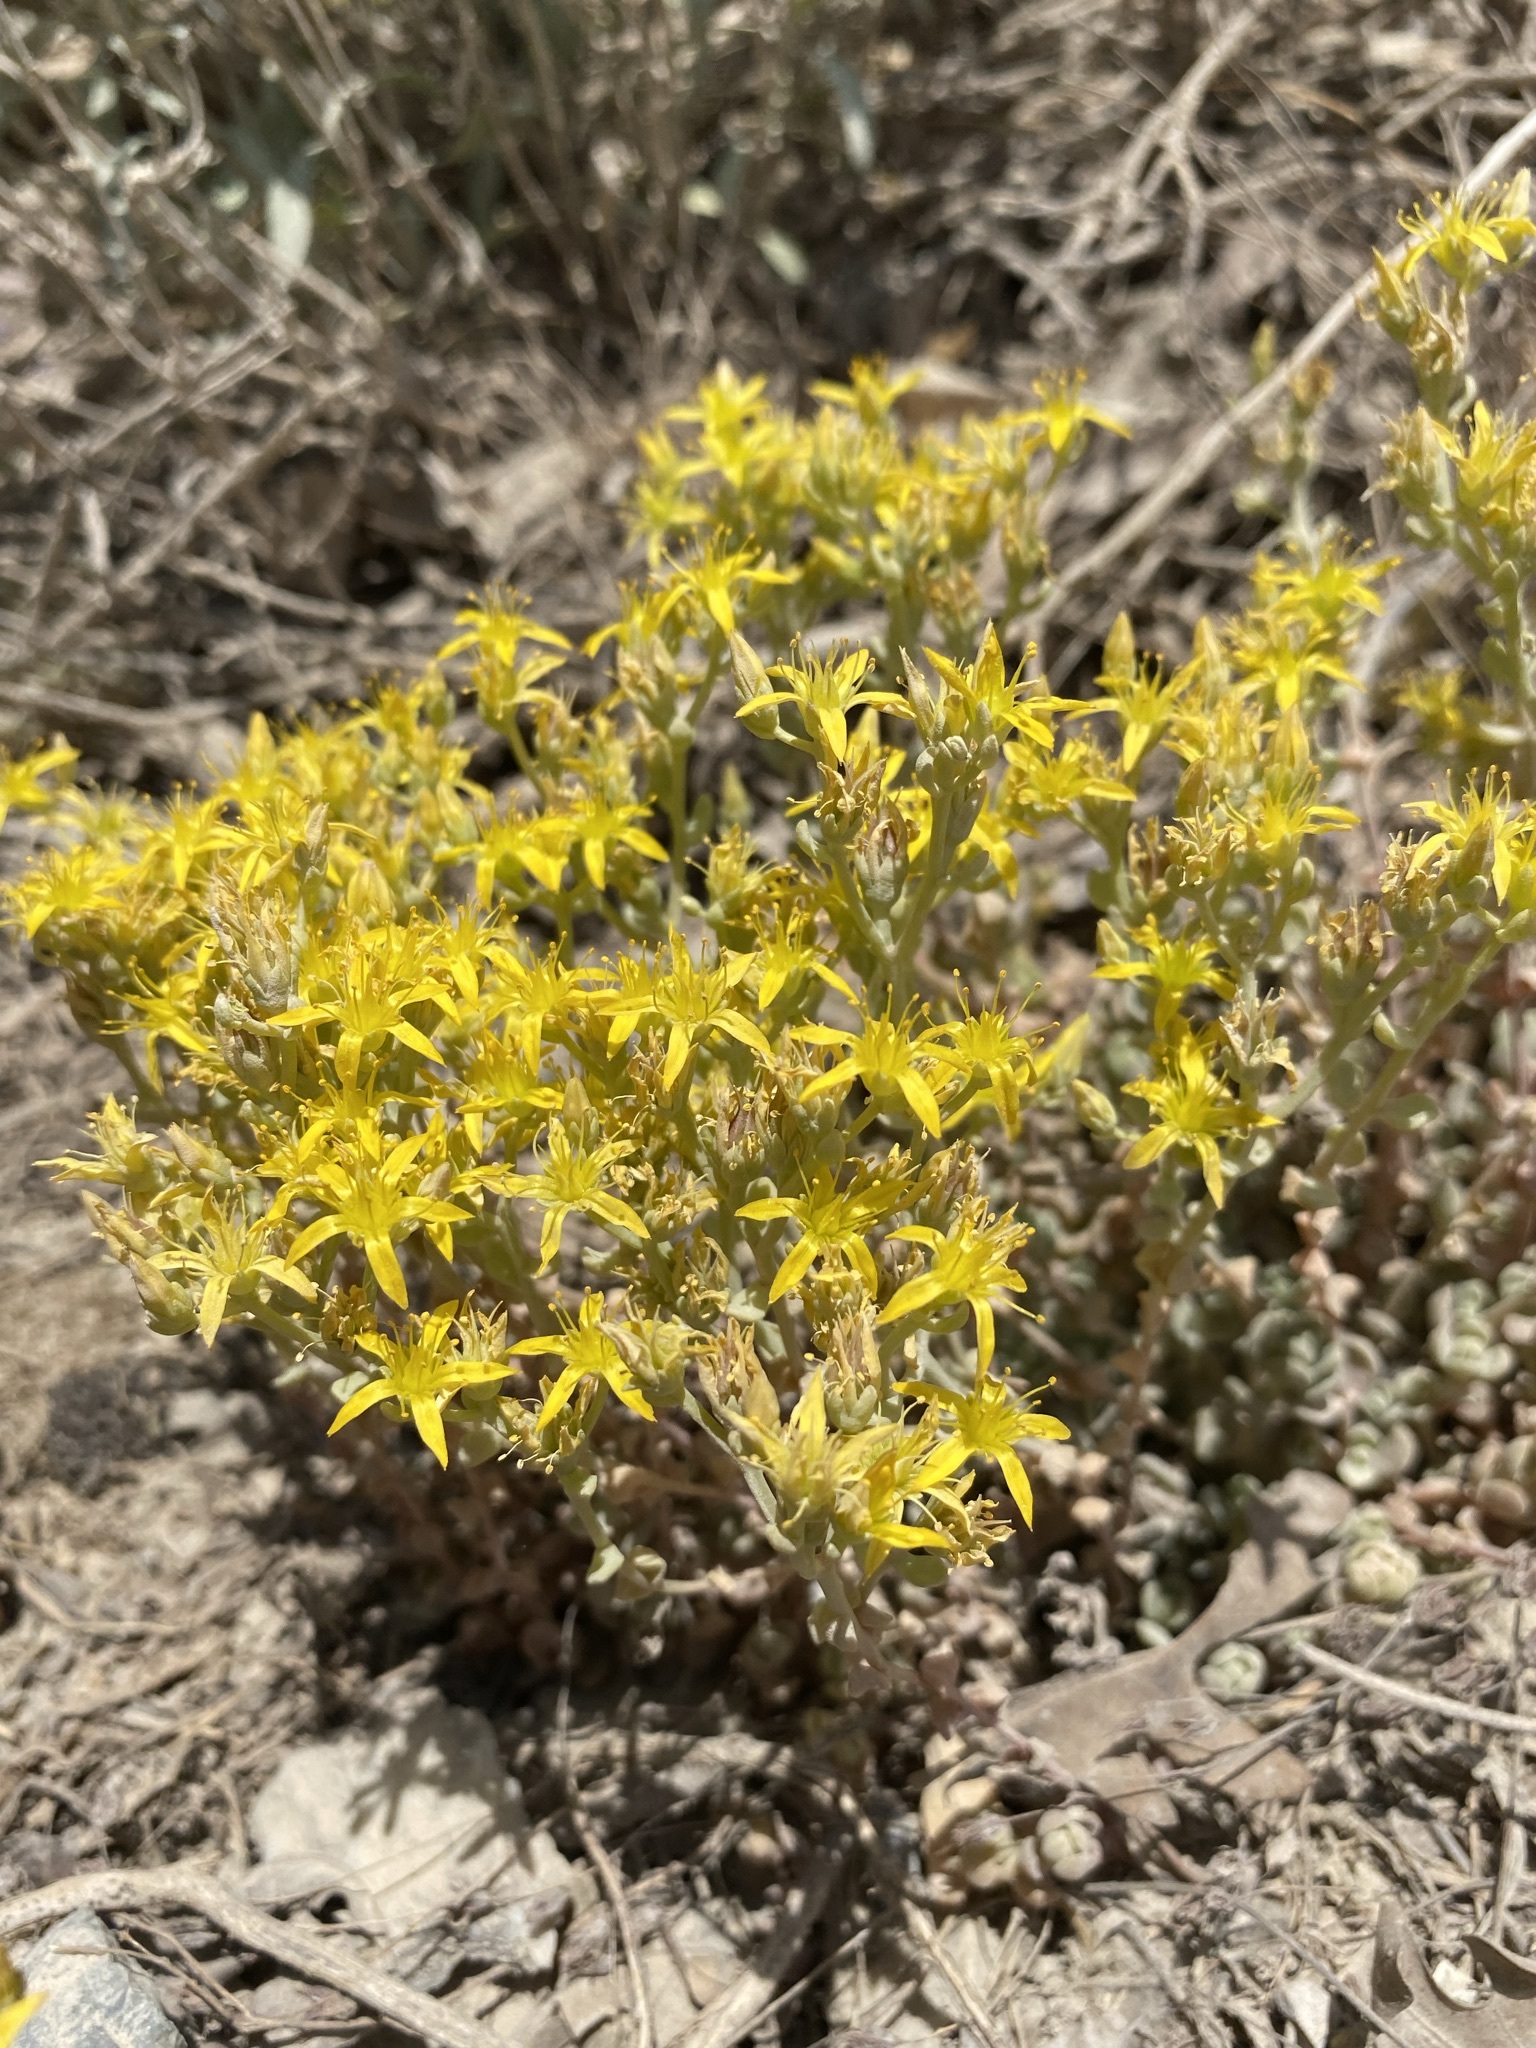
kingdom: Plantae
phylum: Tracheophyta
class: Magnoliopsida
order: Saxifragales
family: Crassulaceae
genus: Sedum
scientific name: Sedum debile
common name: Weak-stem stonecrop
